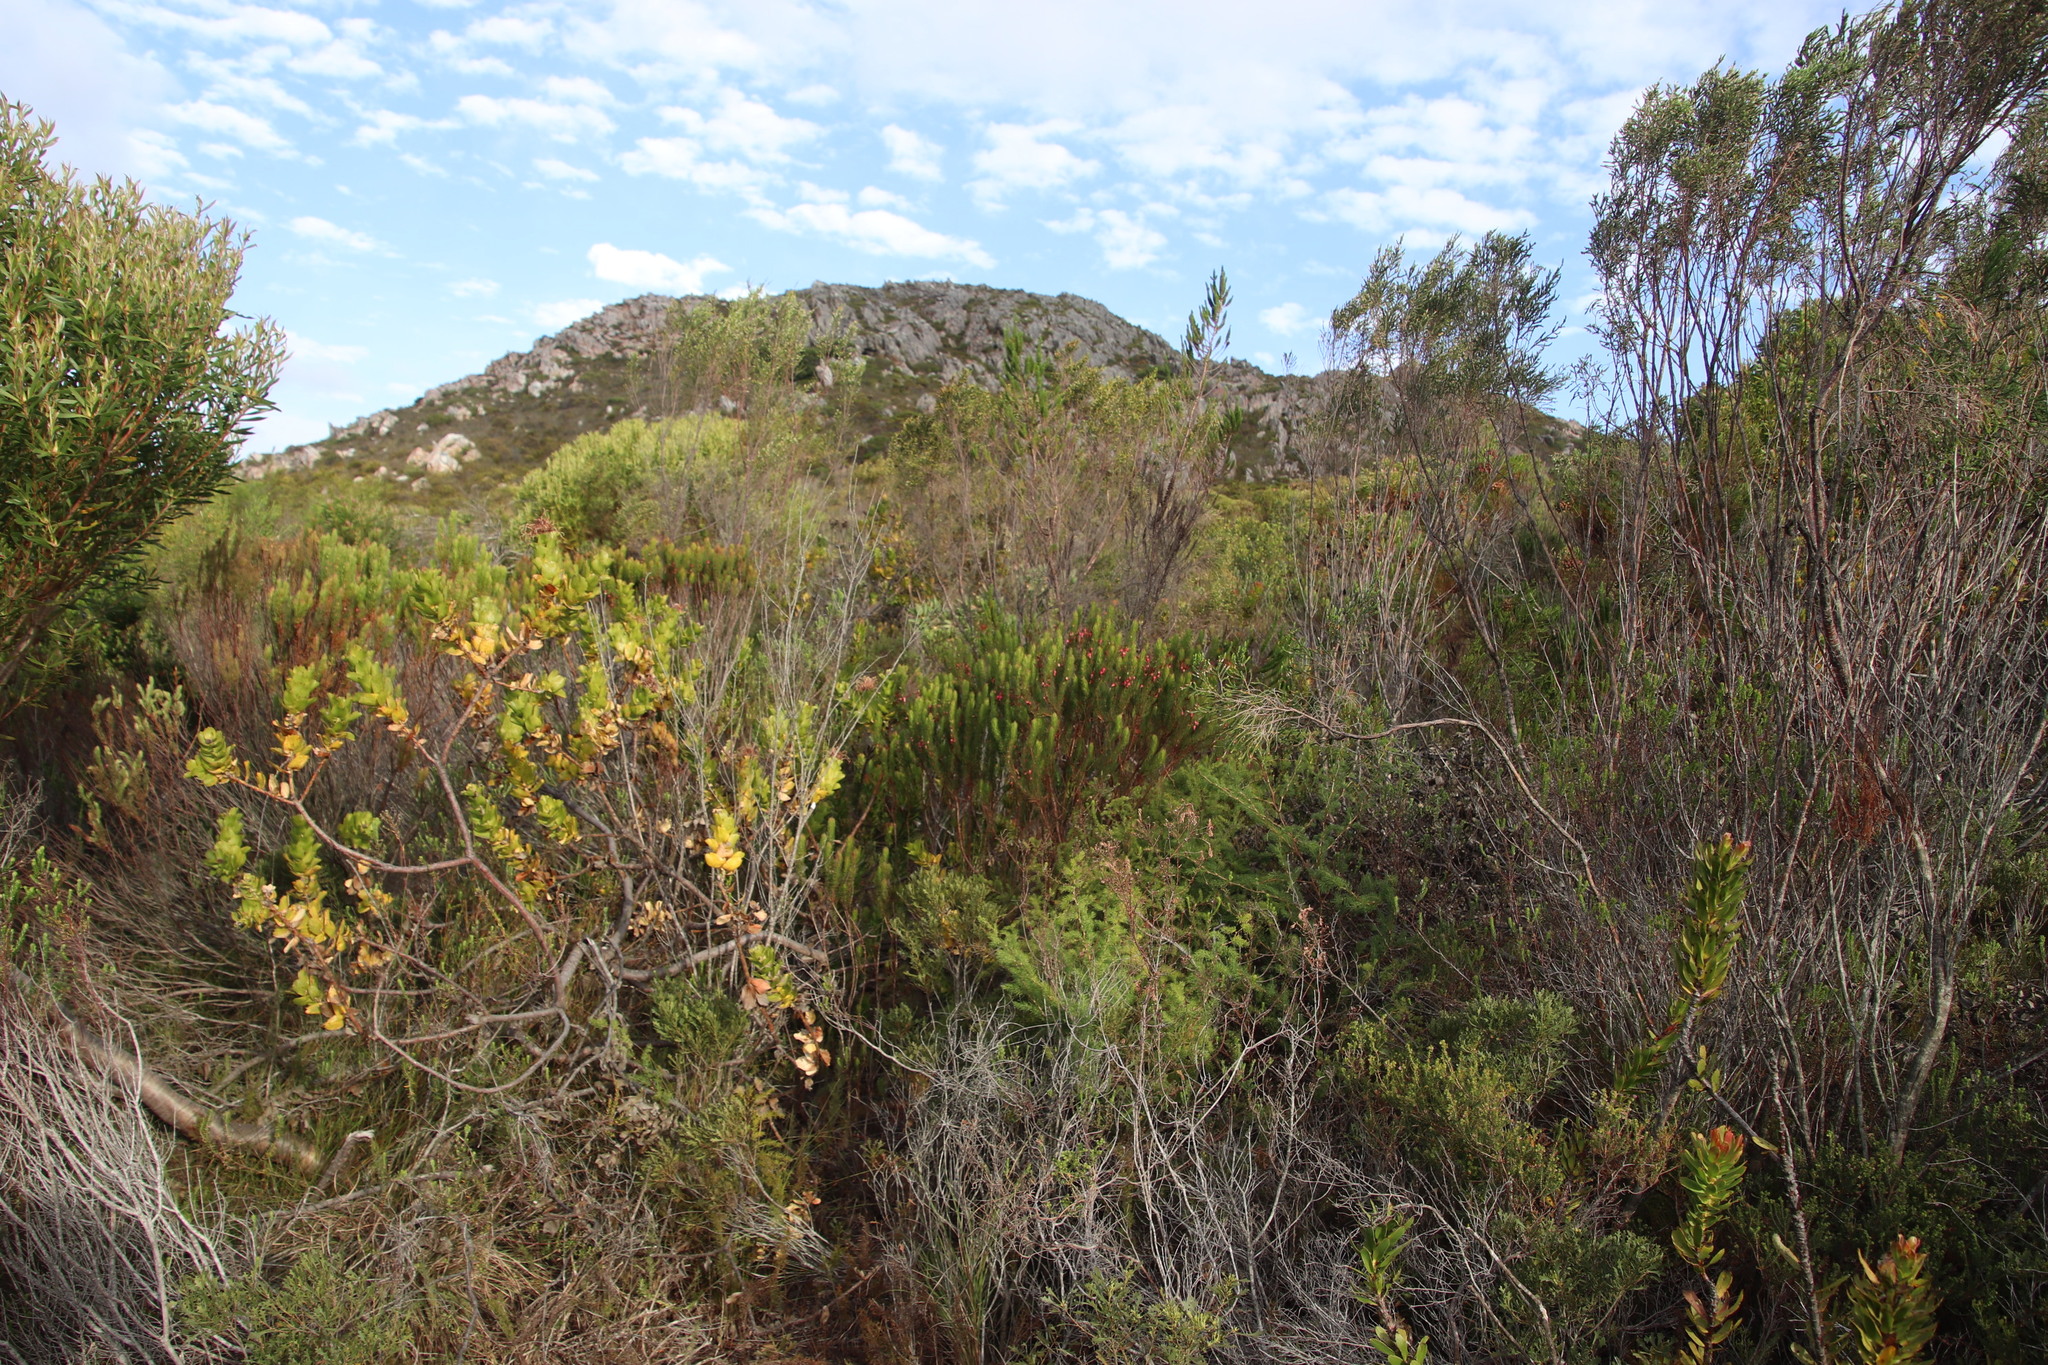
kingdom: Plantae
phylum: Tracheophyta
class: Magnoliopsida
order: Ericales
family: Ericaceae
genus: Erica
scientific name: Erica plukenetii
